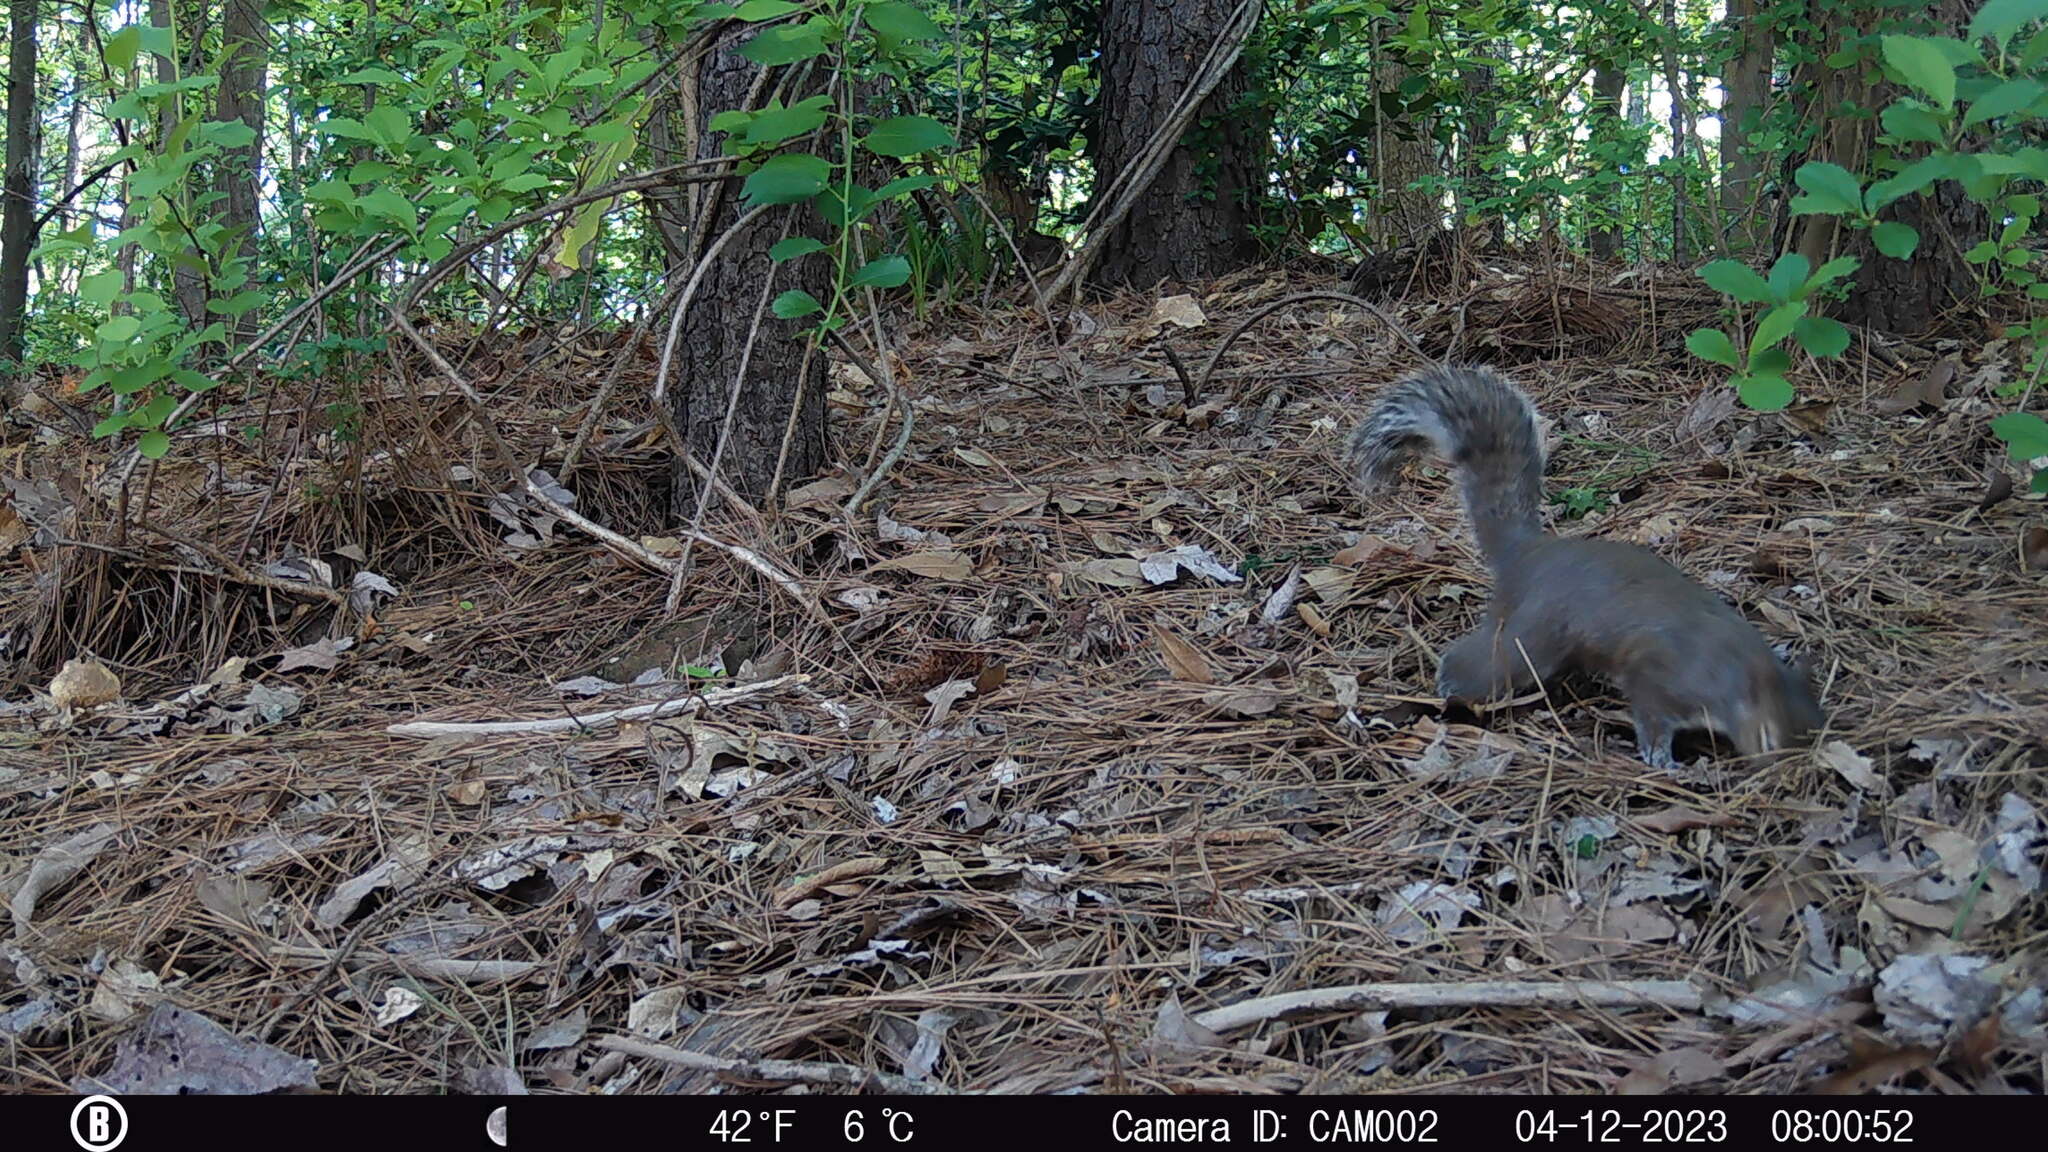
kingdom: Animalia
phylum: Chordata
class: Mammalia
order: Rodentia
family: Sciuridae
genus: Sciurus
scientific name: Sciurus carolinensis
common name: Eastern gray squirrel
